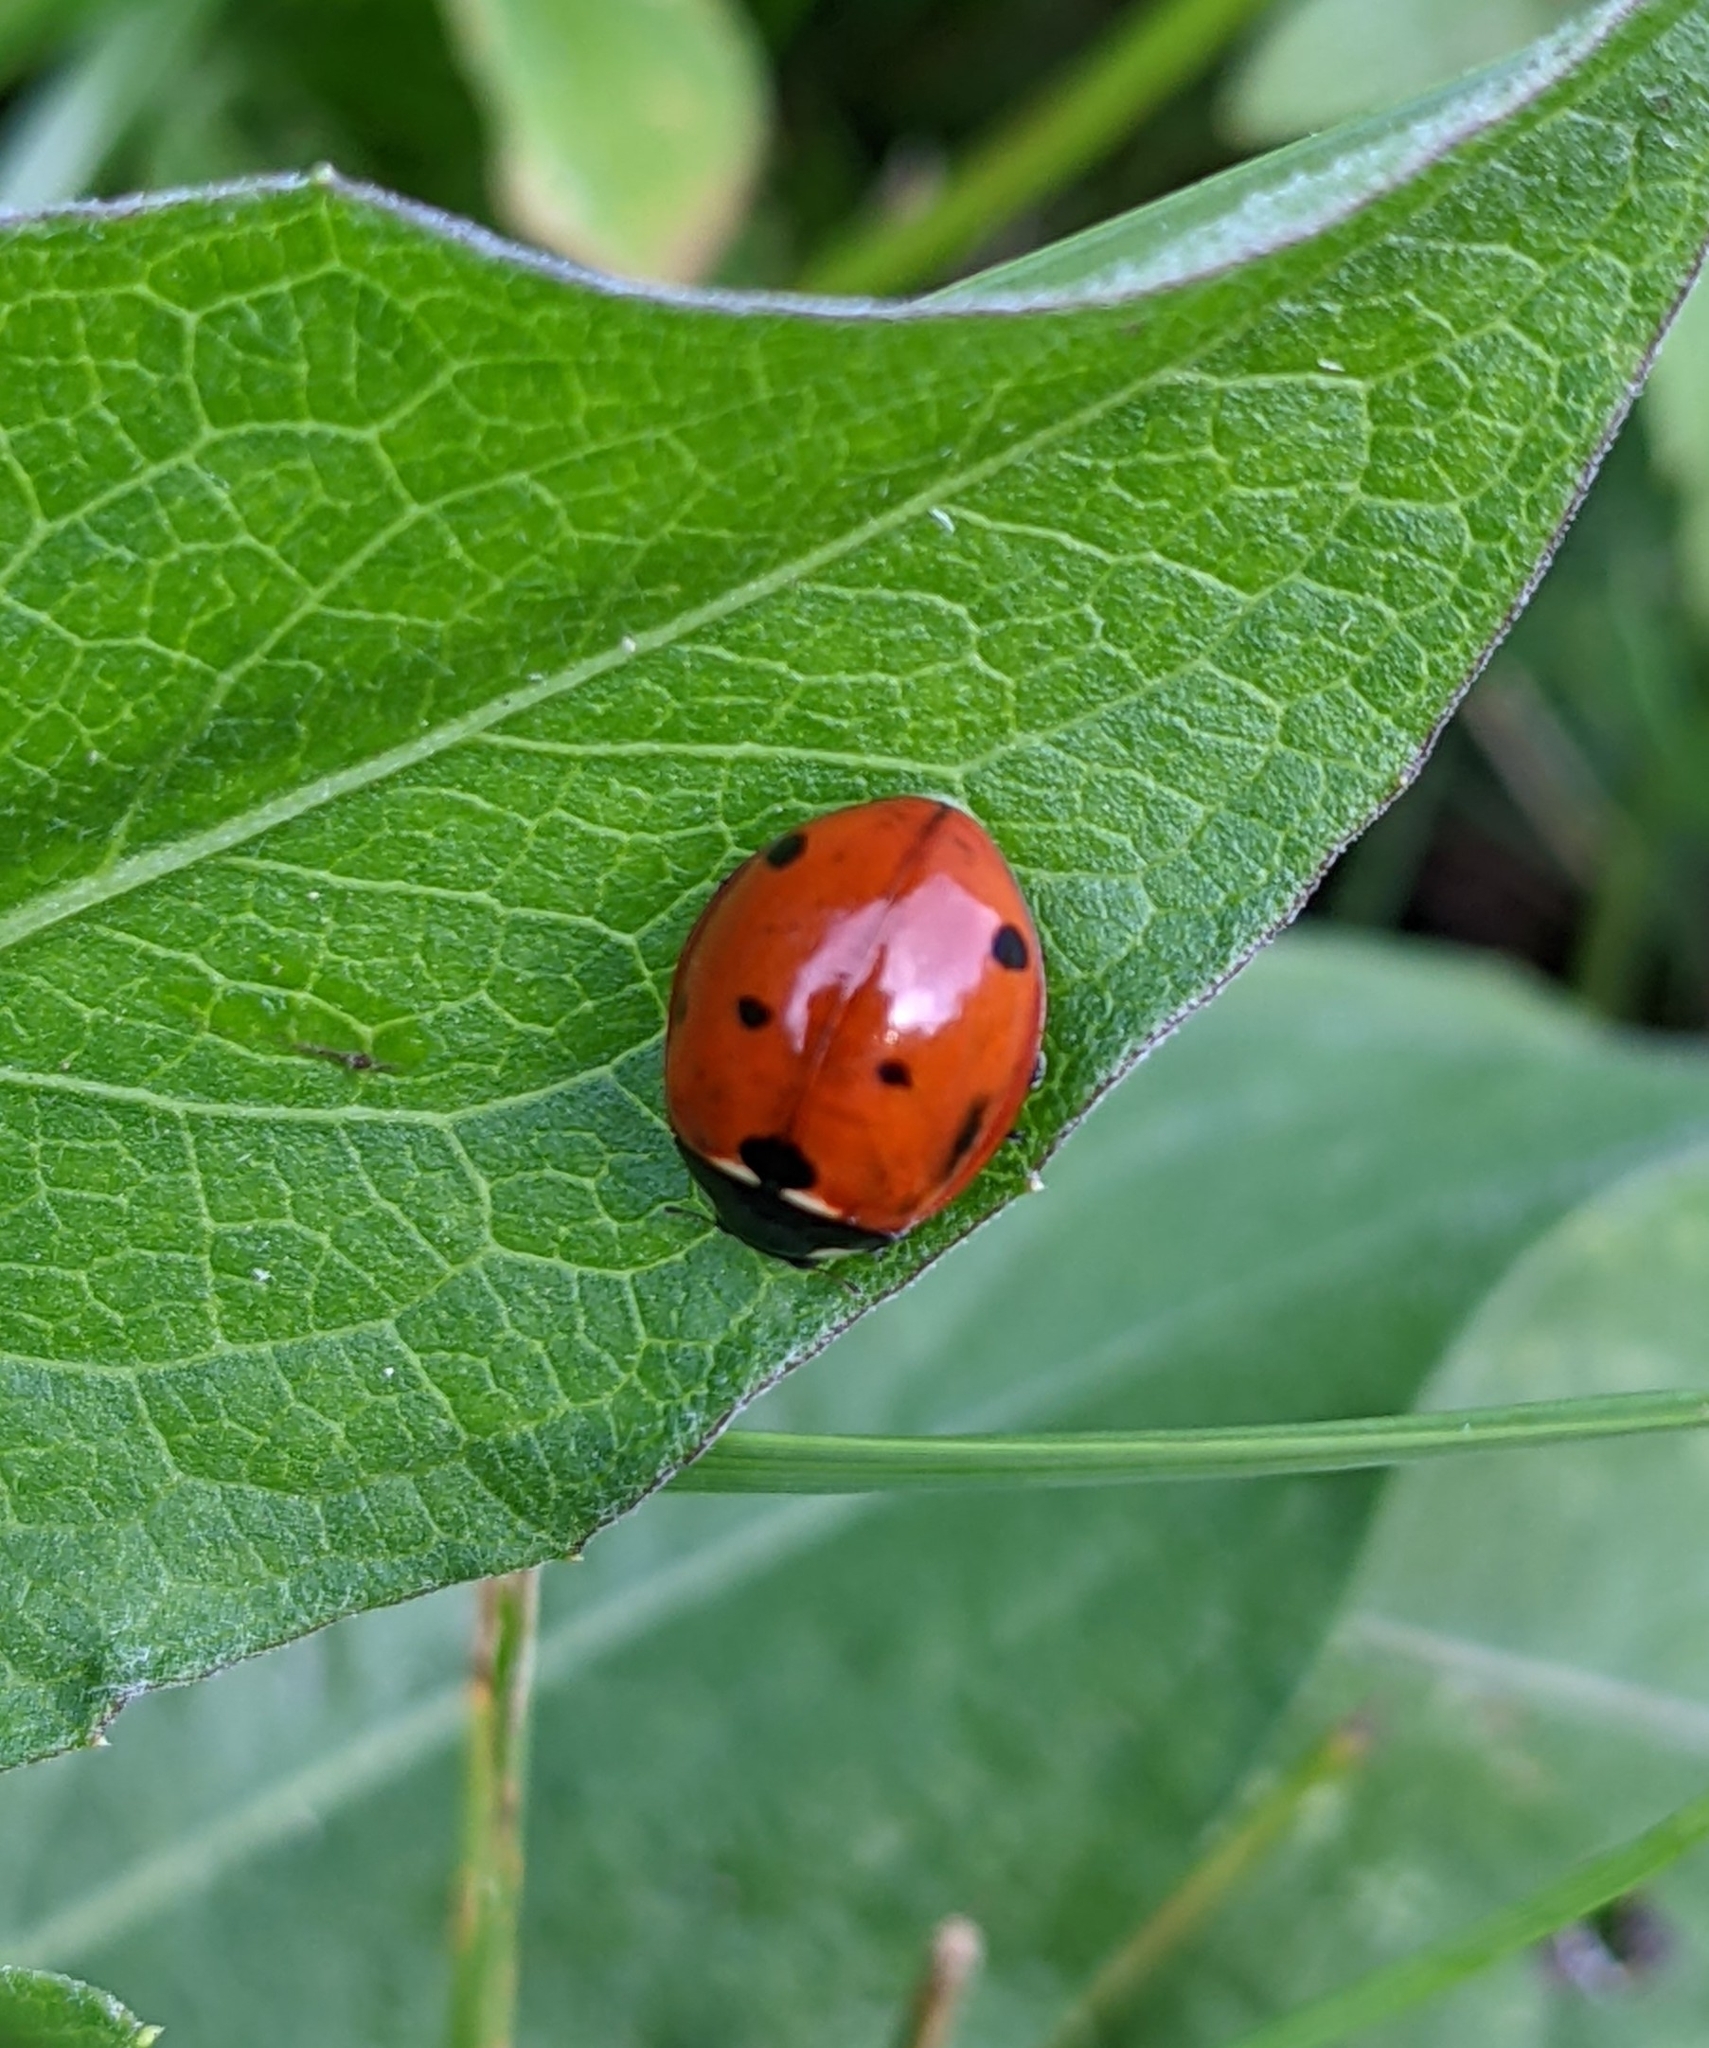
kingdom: Animalia
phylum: Arthropoda
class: Insecta
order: Coleoptera
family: Coccinellidae
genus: Coccinella
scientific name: Coccinella septempunctata
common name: Sevenspotted lady beetle
